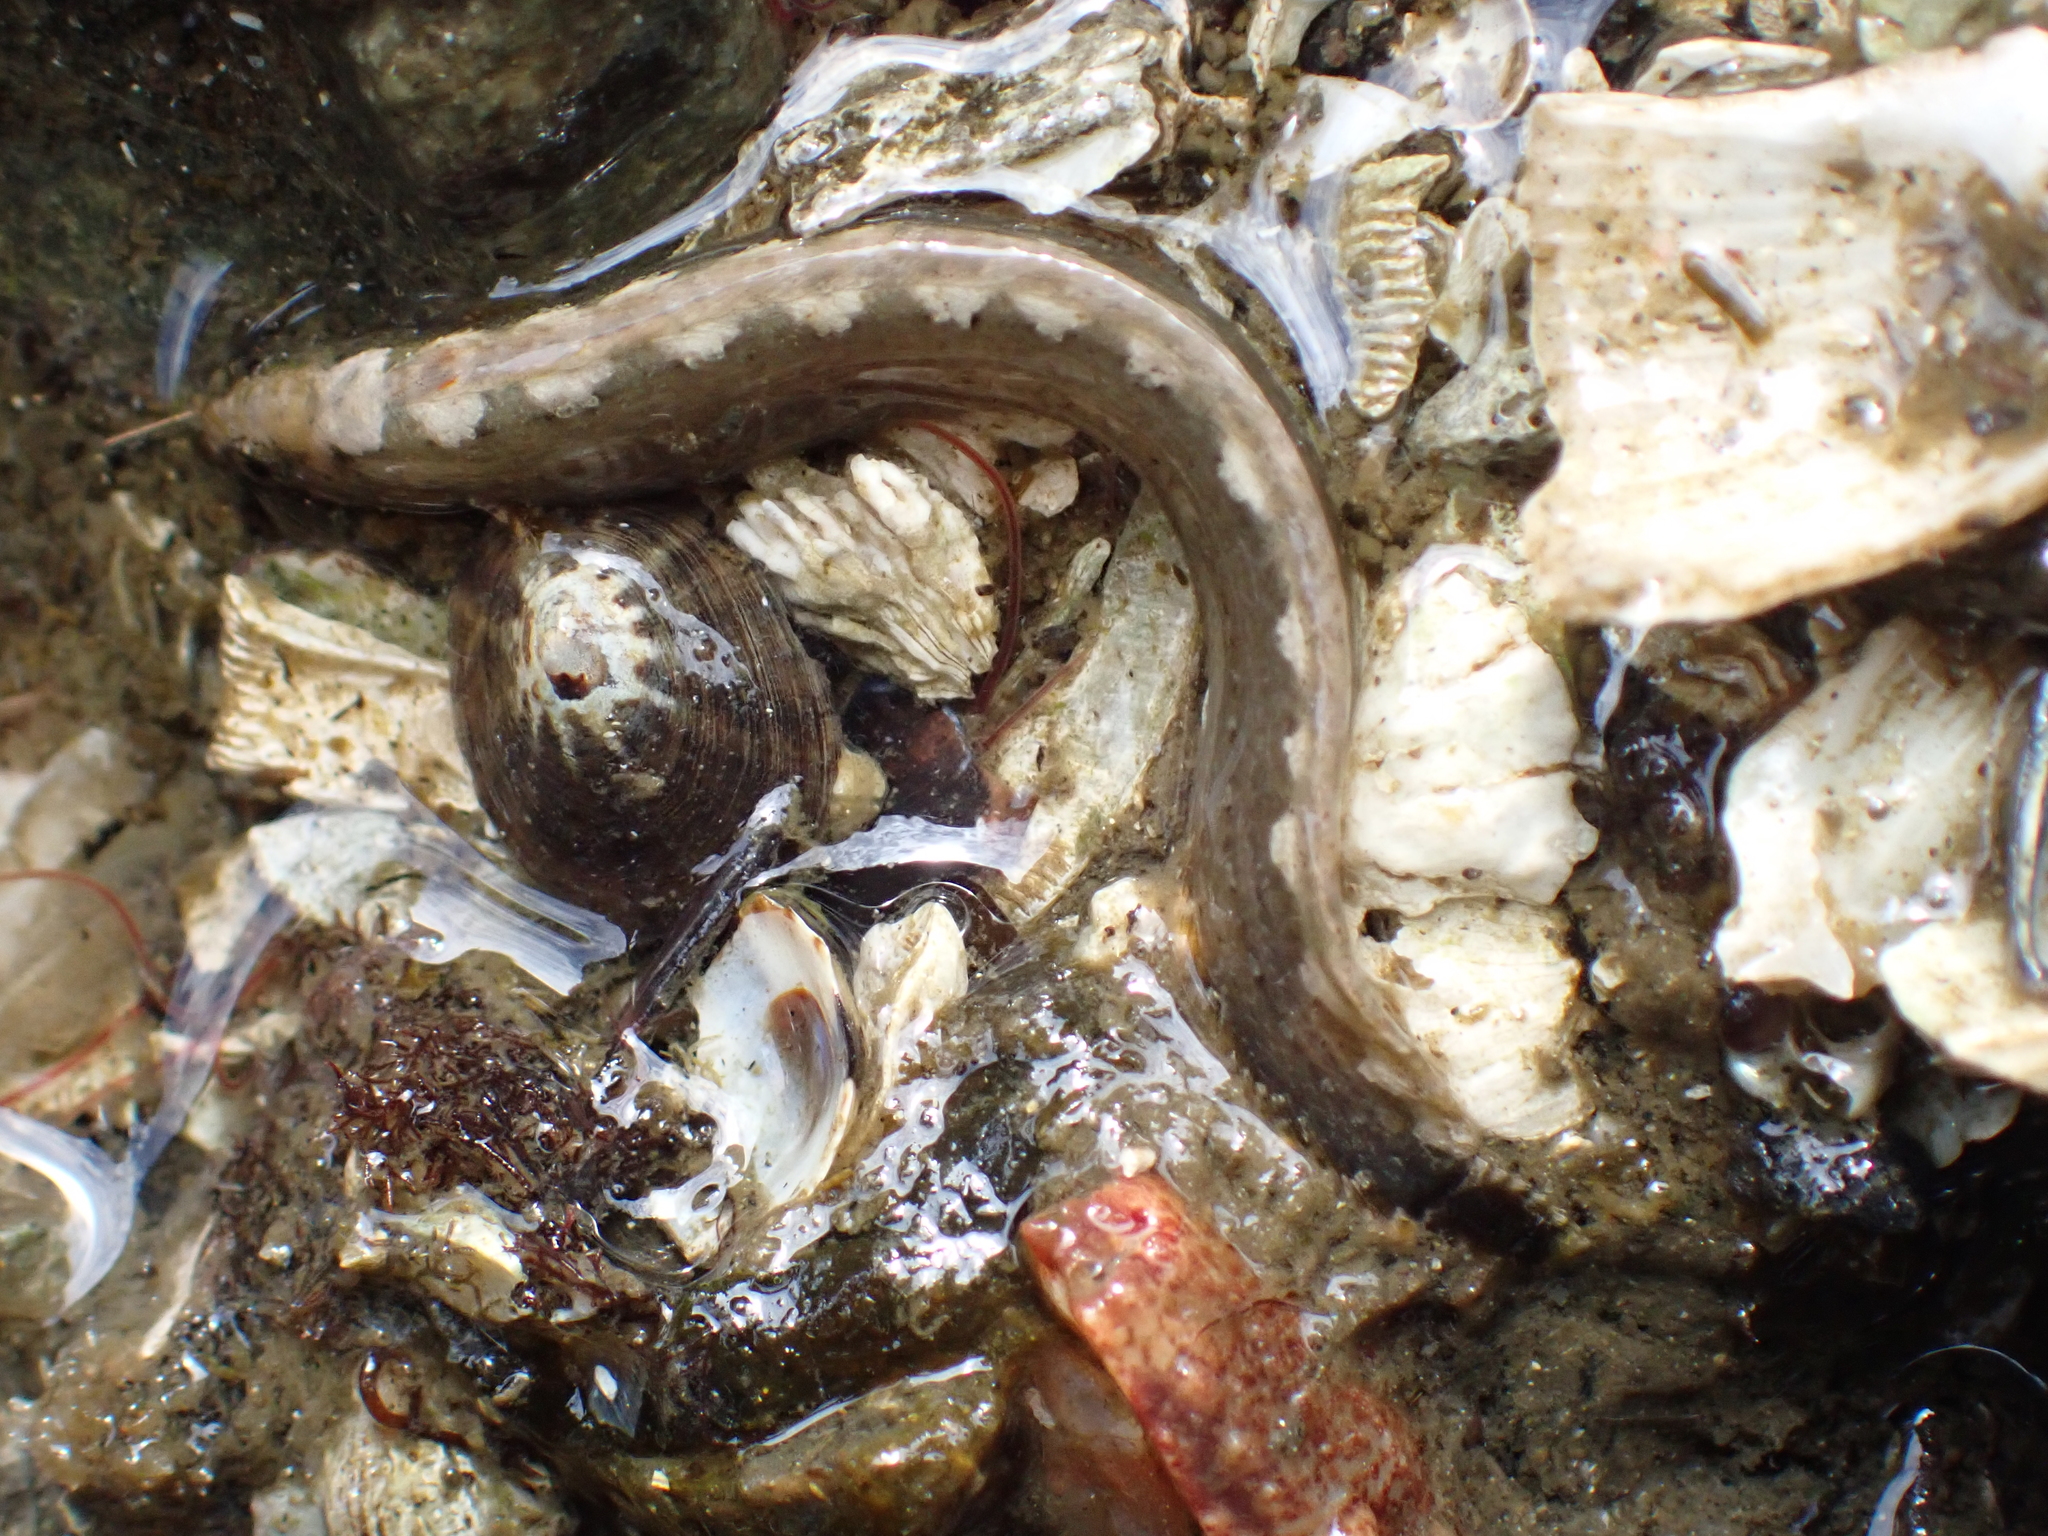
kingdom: Animalia
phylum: Chordata
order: Perciformes
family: Stichaeidae
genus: Anoplarchus
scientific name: Anoplarchus purpurescens
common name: High cockscomb
